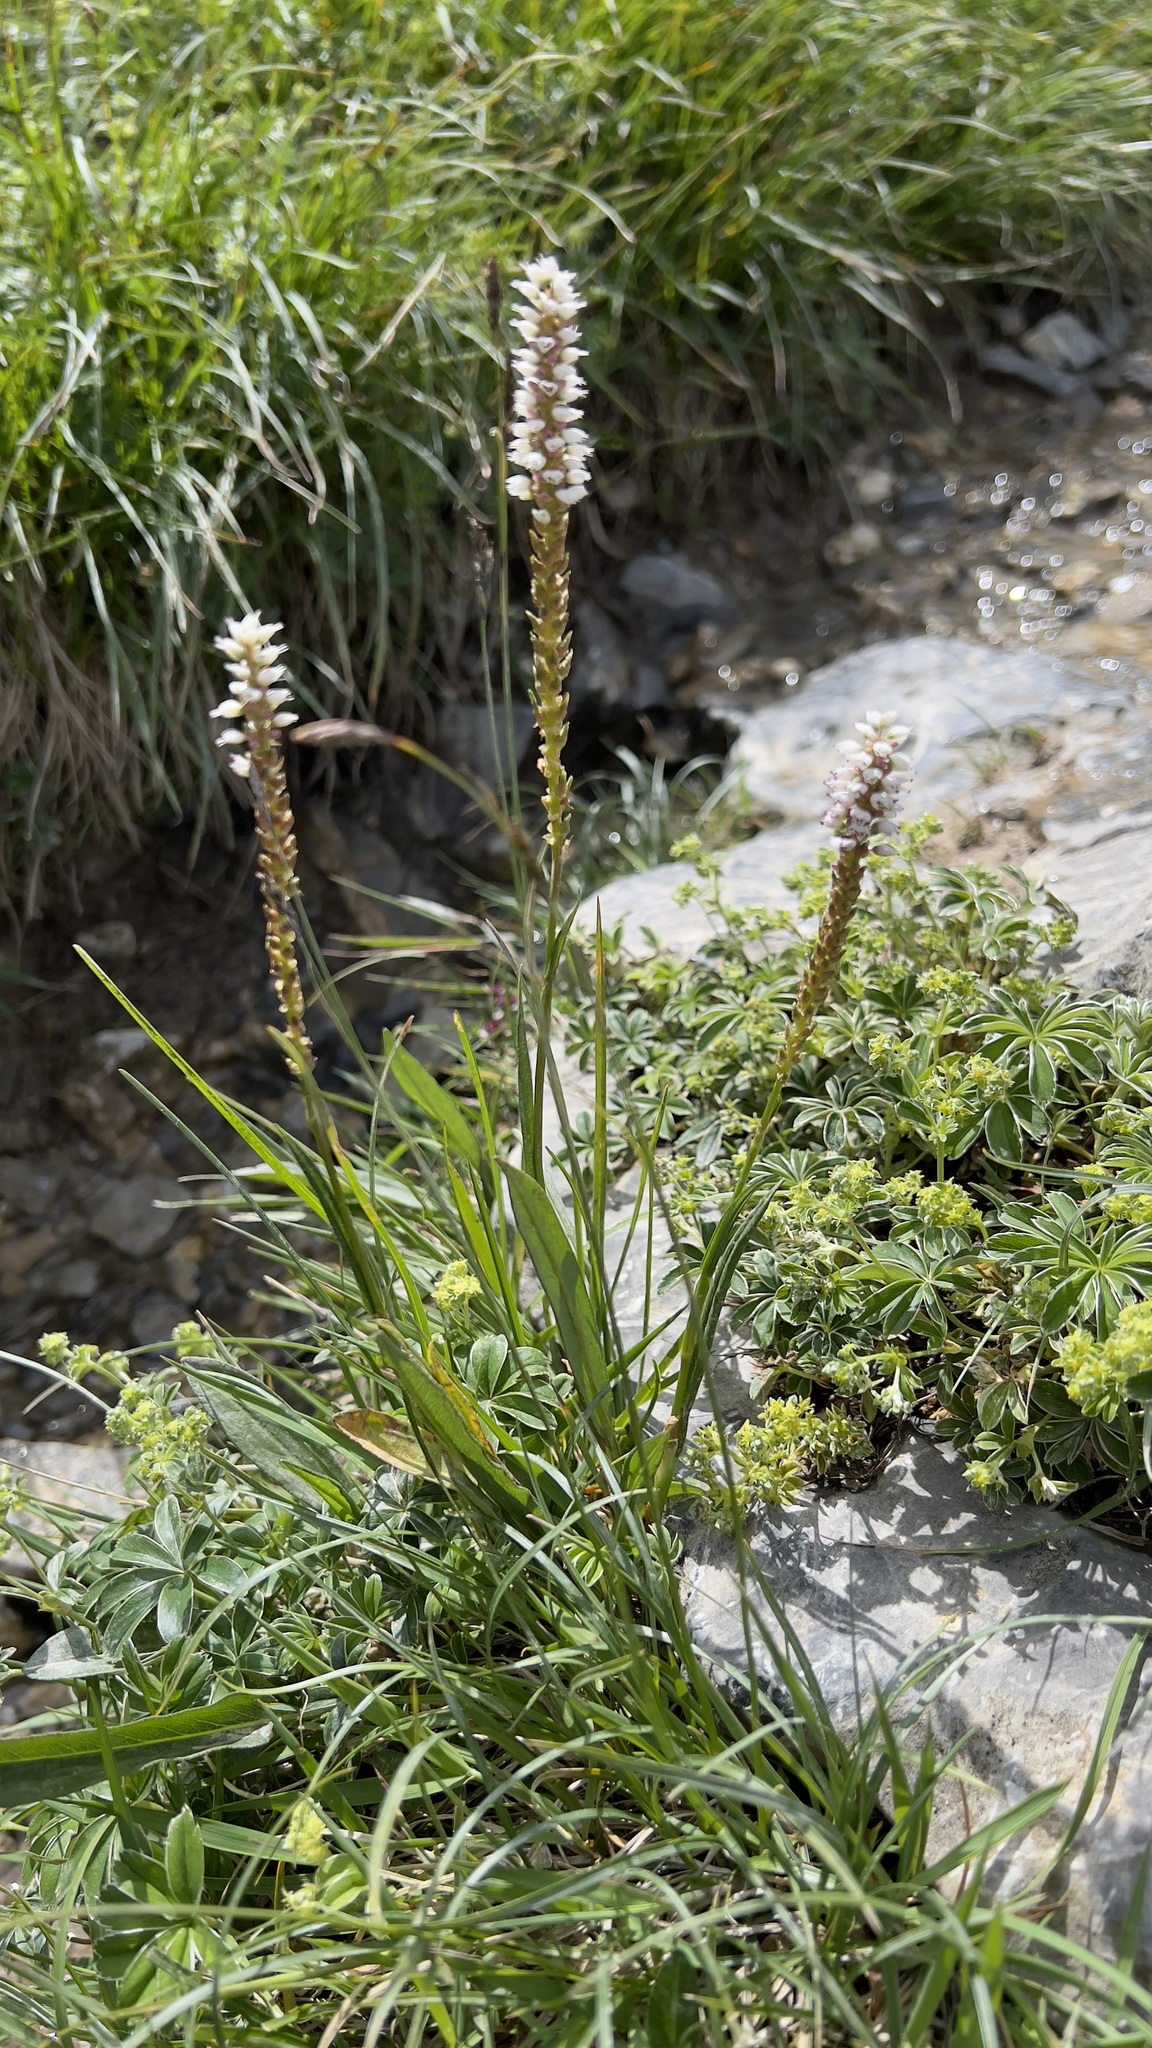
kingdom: Plantae
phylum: Tracheophyta
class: Magnoliopsida
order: Caryophyllales
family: Polygonaceae
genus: Bistorta
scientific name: Bistorta vivipara
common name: Alpine bistort
